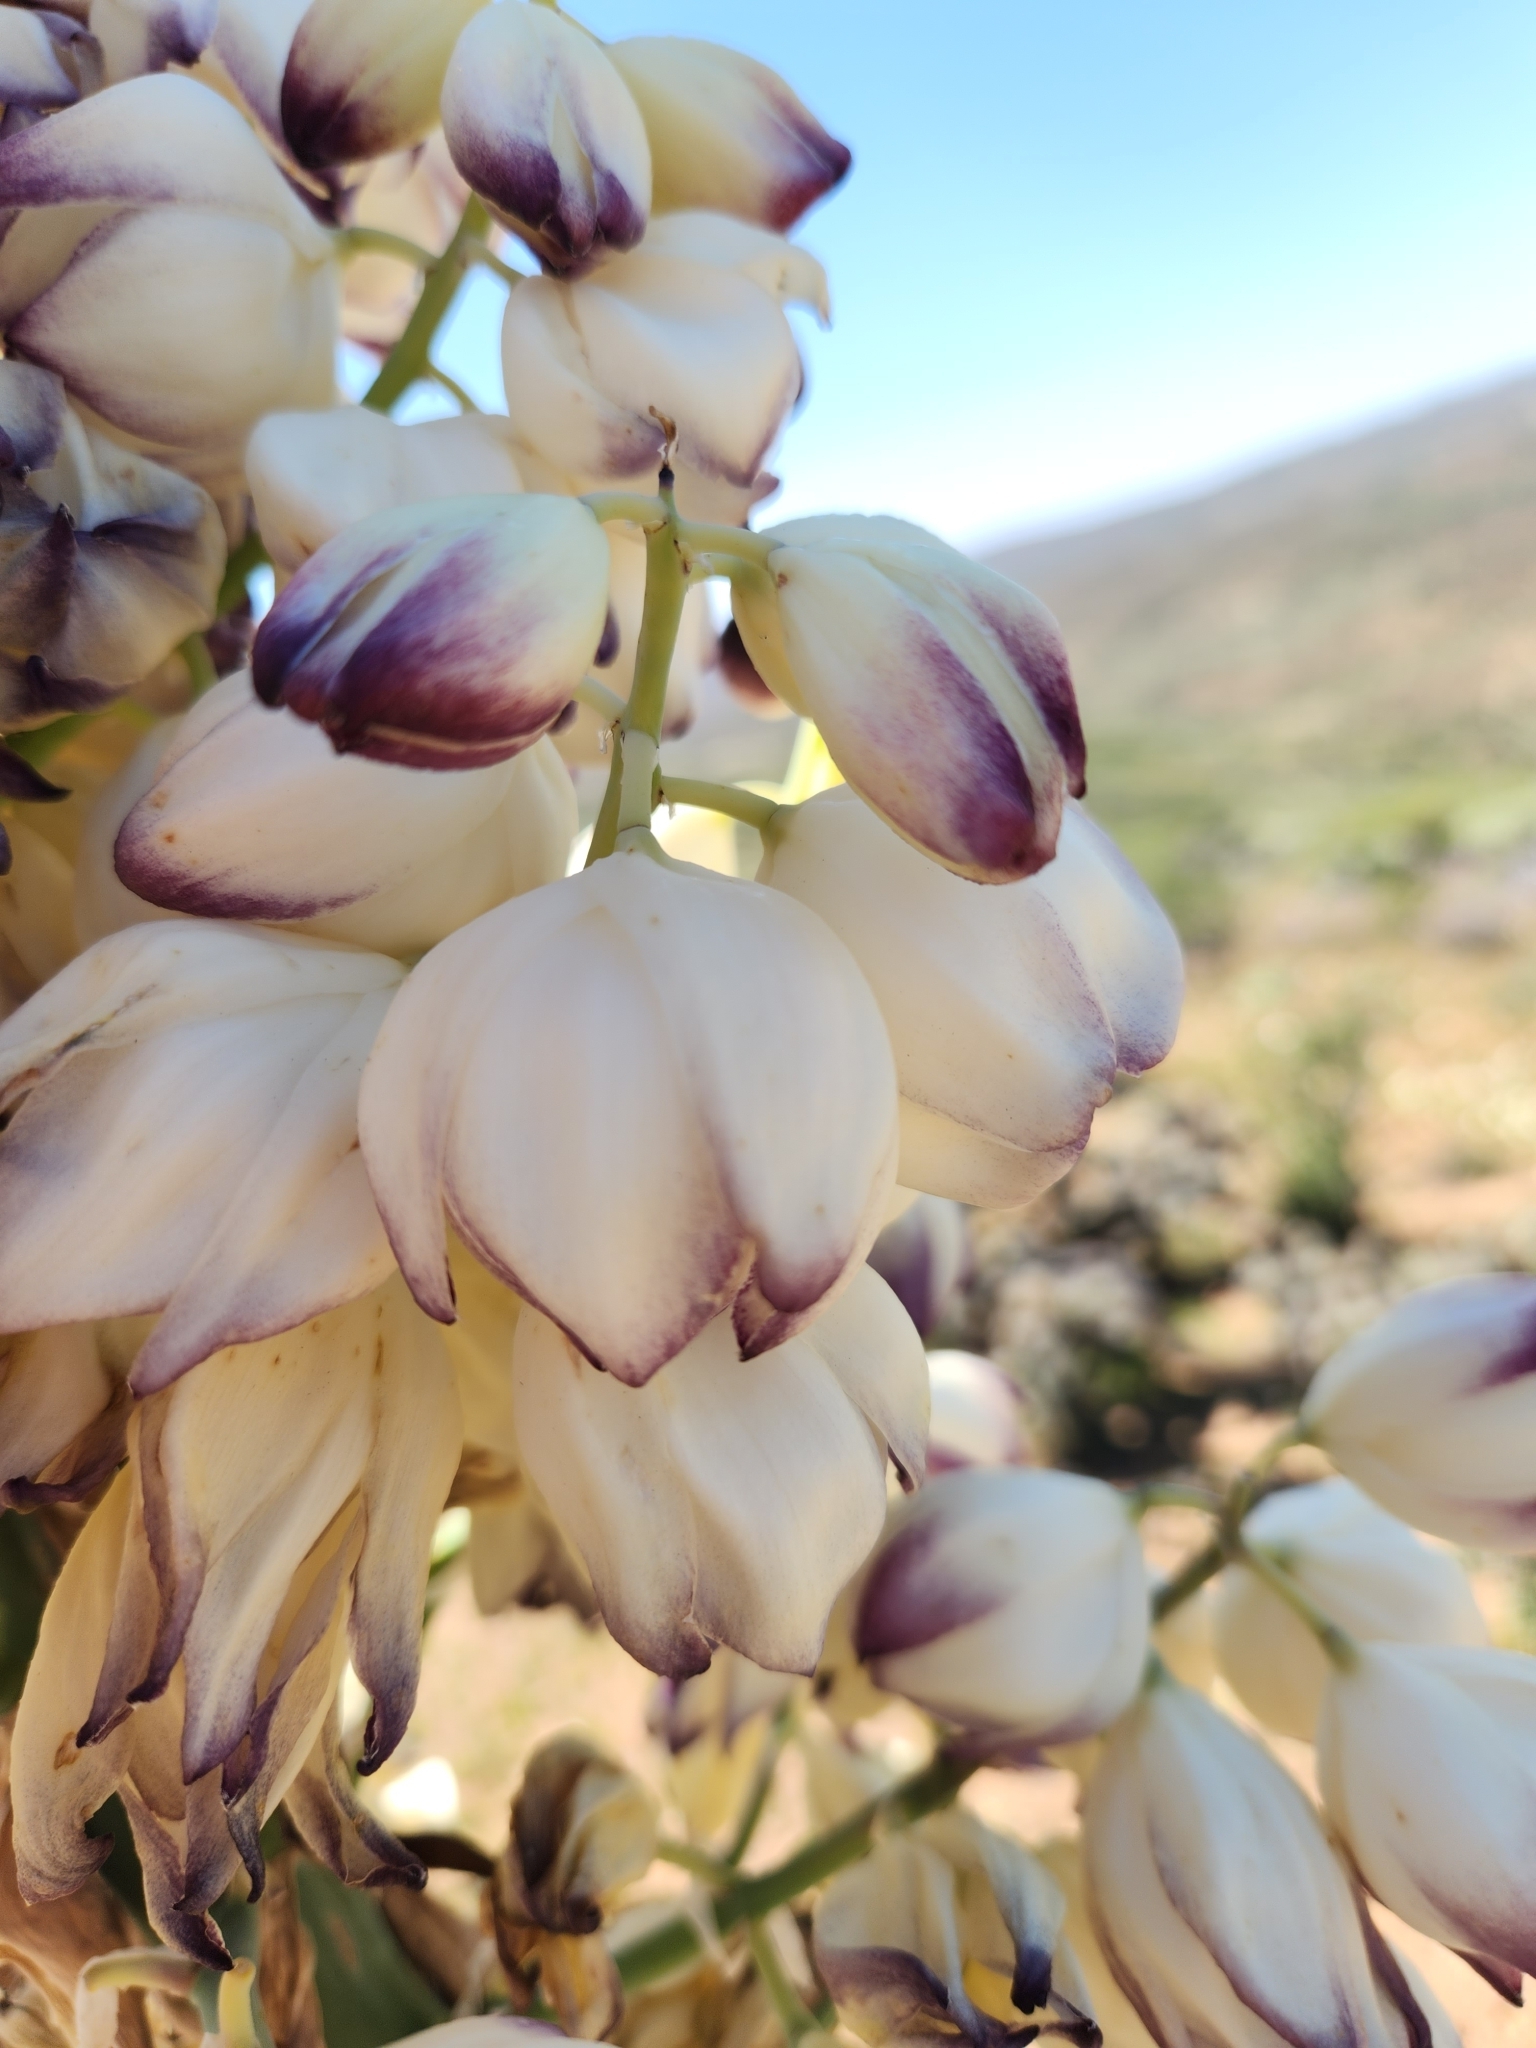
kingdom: Plantae
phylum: Tracheophyta
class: Liliopsida
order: Asparagales
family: Asparagaceae
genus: Hesperoyucca
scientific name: Hesperoyucca whipplei
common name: Our lord's-candle
